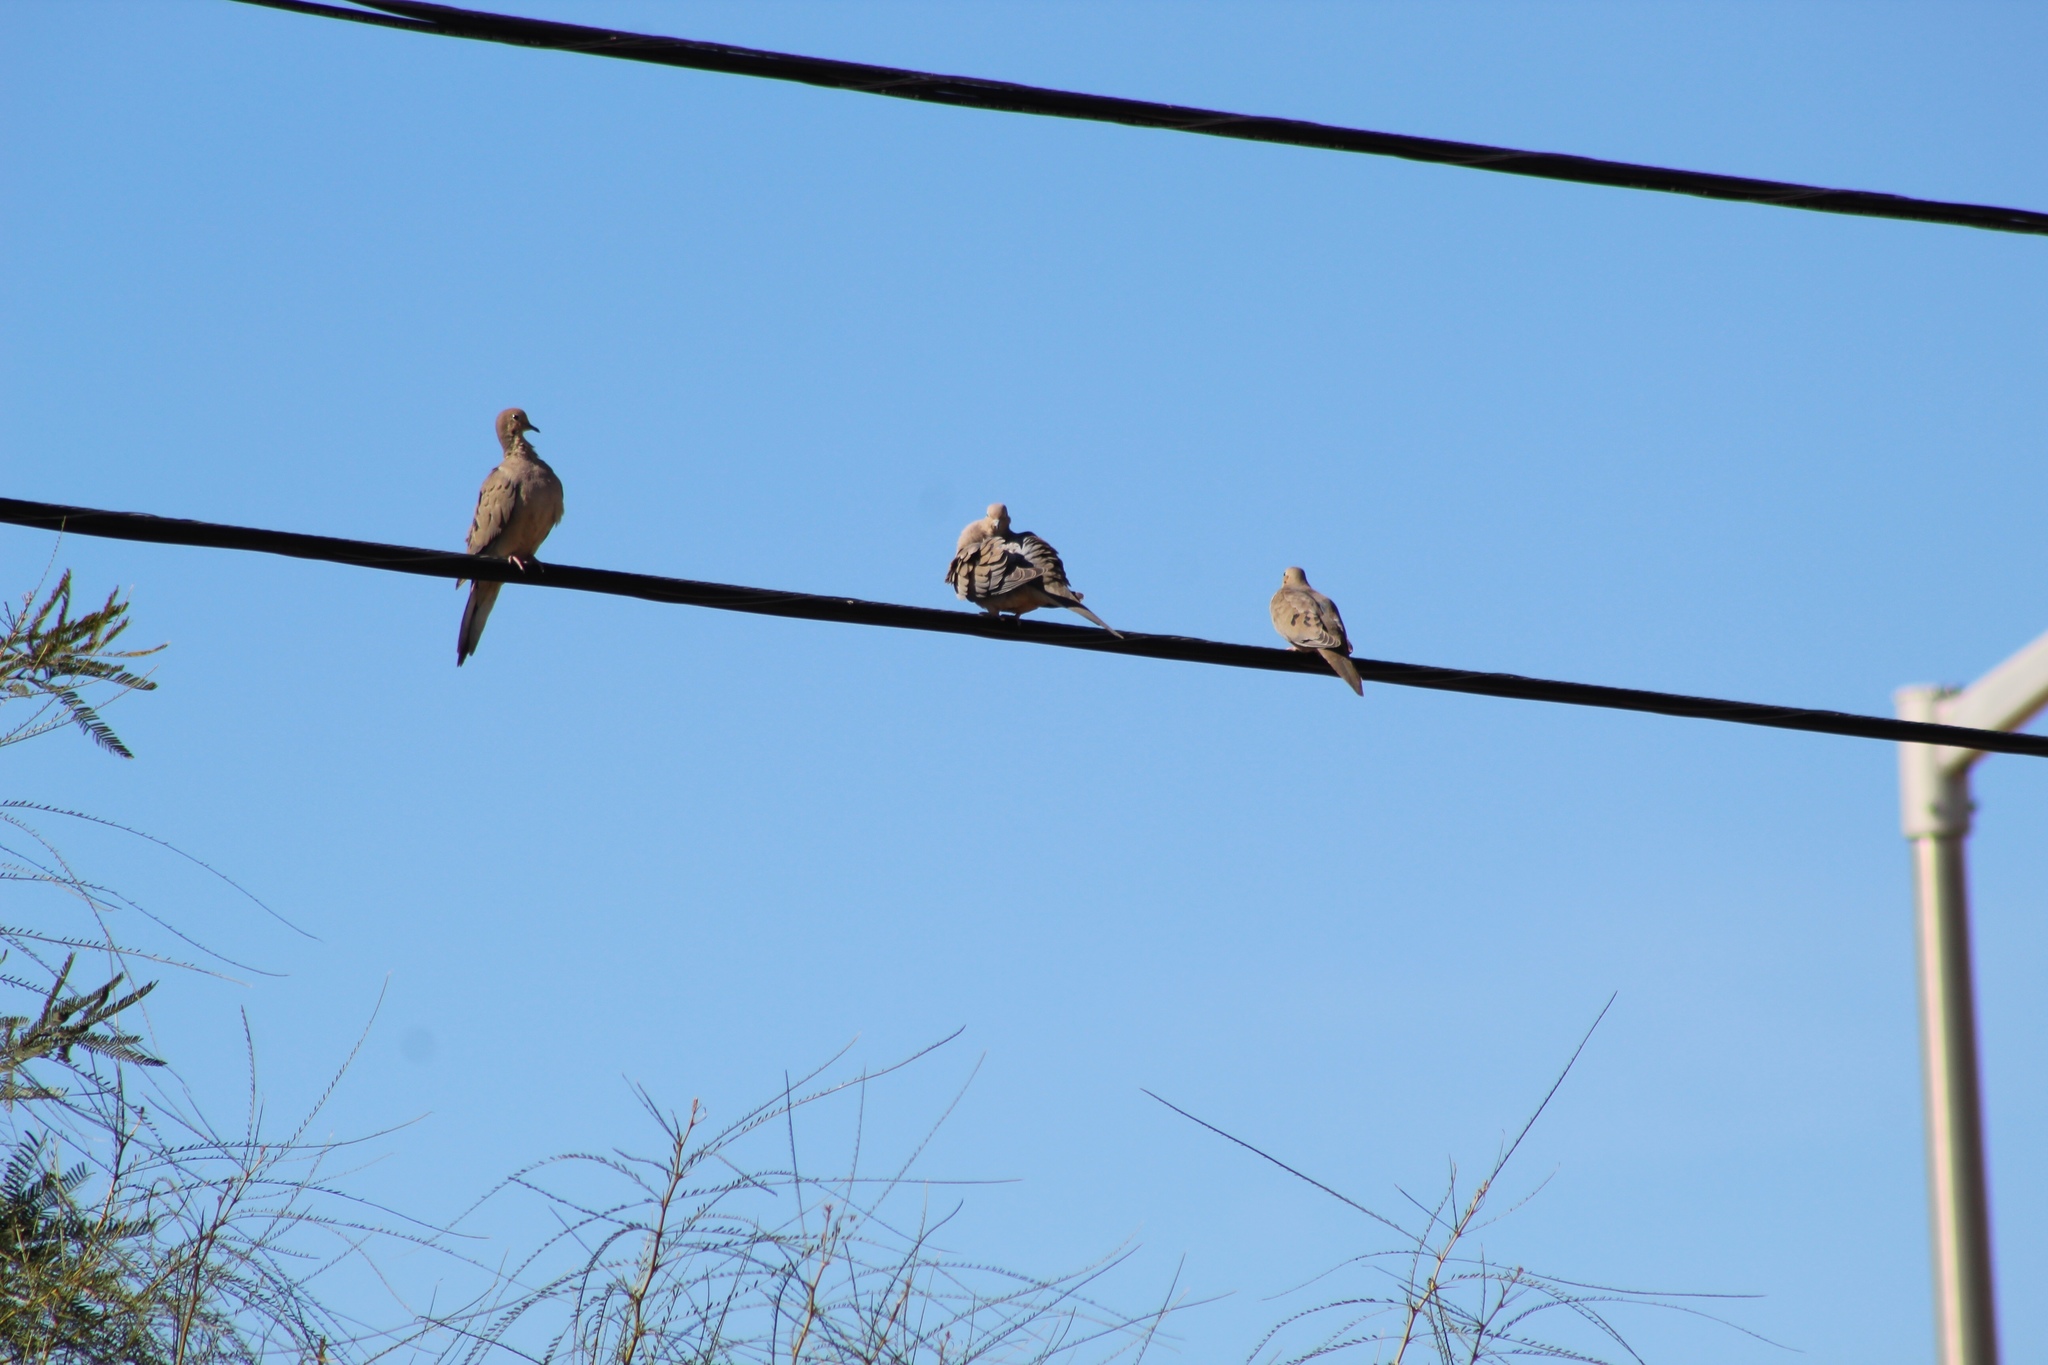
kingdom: Animalia
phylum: Chordata
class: Aves
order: Columbiformes
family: Columbidae
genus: Zenaida
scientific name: Zenaida macroura
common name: Mourning dove
